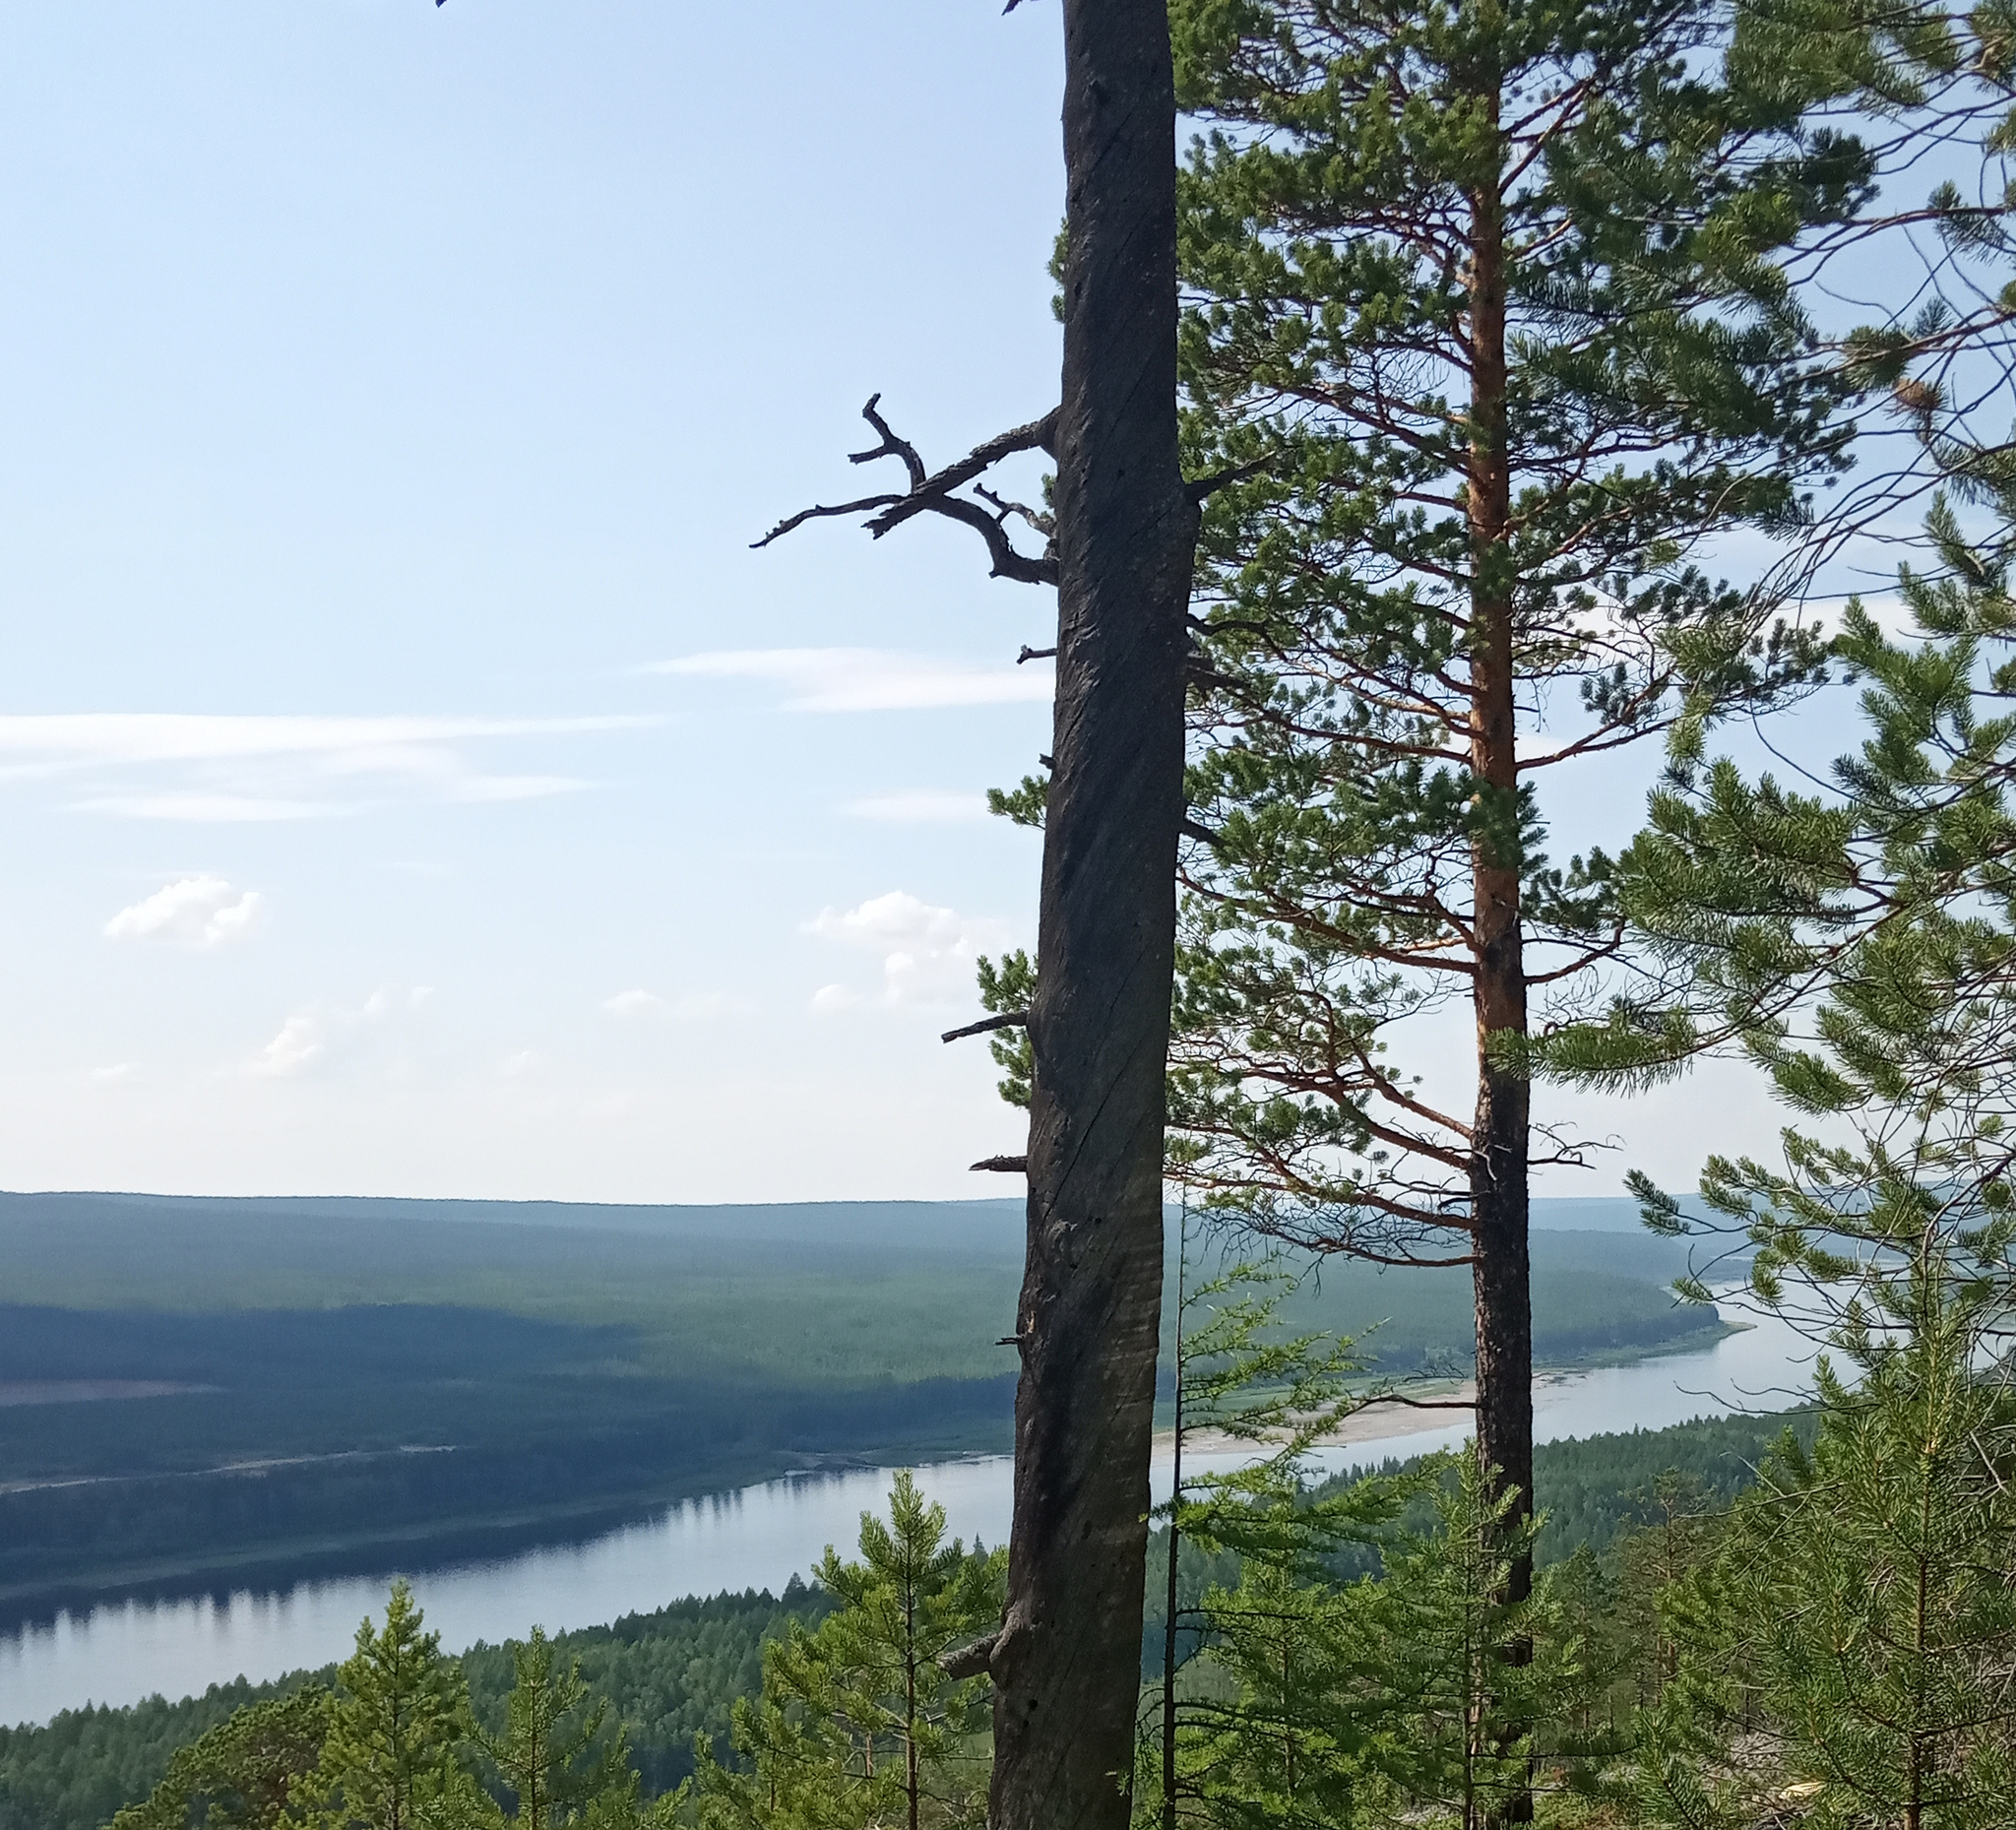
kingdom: Plantae
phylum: Tracheophyta
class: Pinopsida
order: Pinales
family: Pinaceae
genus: Pinus
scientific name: Pinus sylvestris
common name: Scots pine
